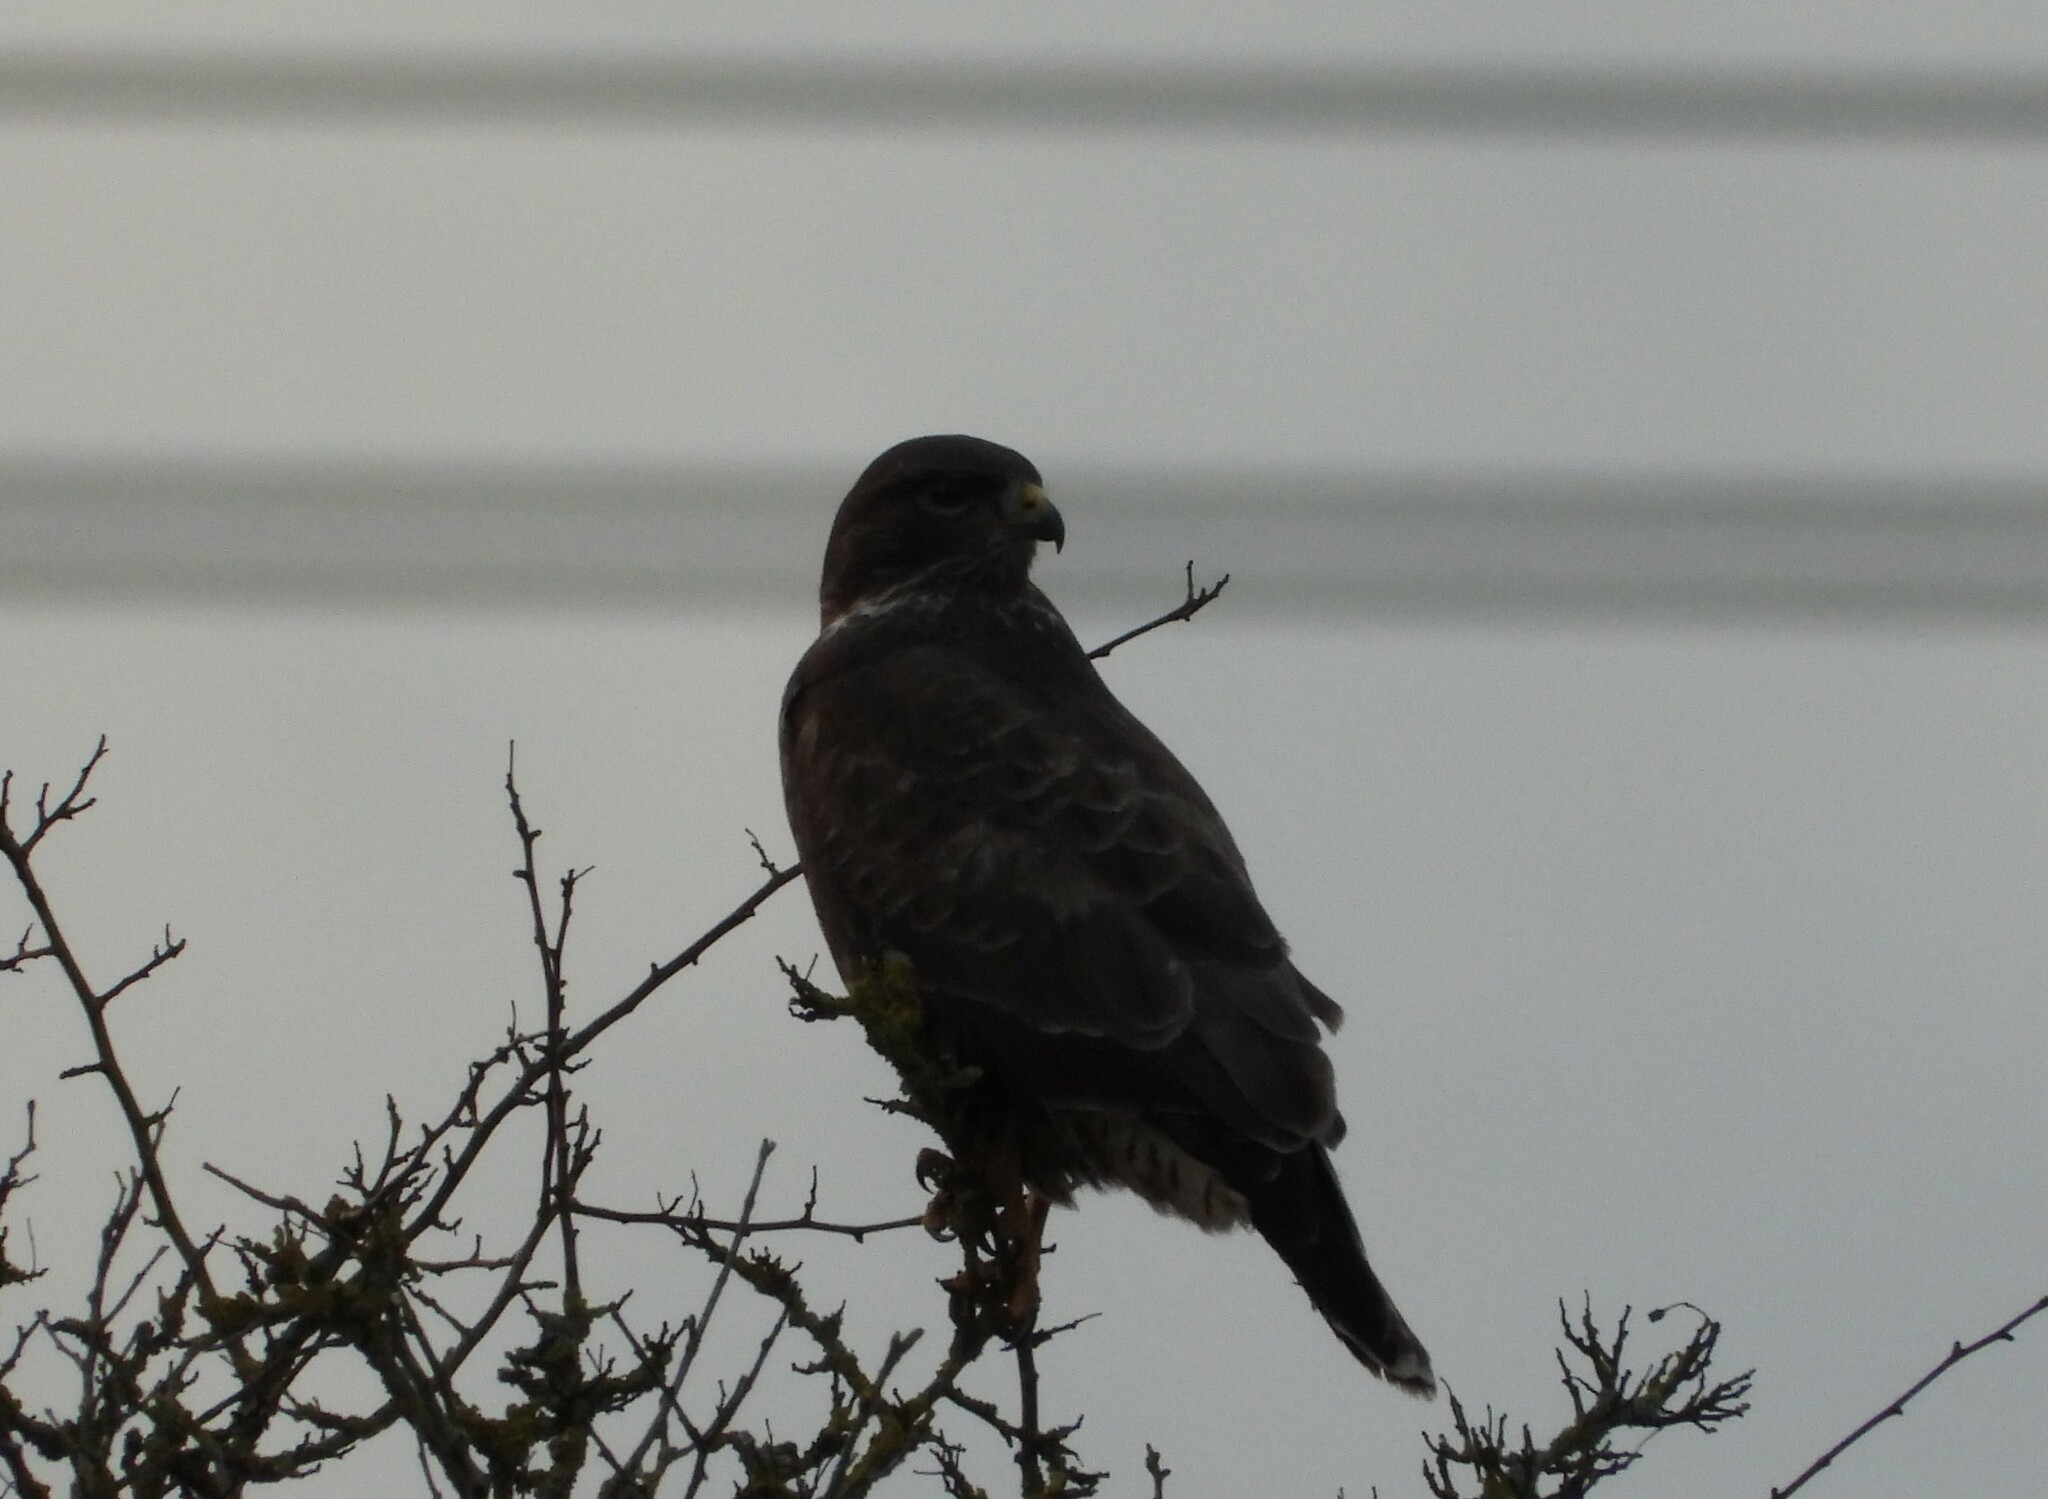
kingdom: Animalia
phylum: Chordata
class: Aves
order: Accipitriformes
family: Accipitridae
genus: Buteo
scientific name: Buteo buteo
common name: Common buzzard
